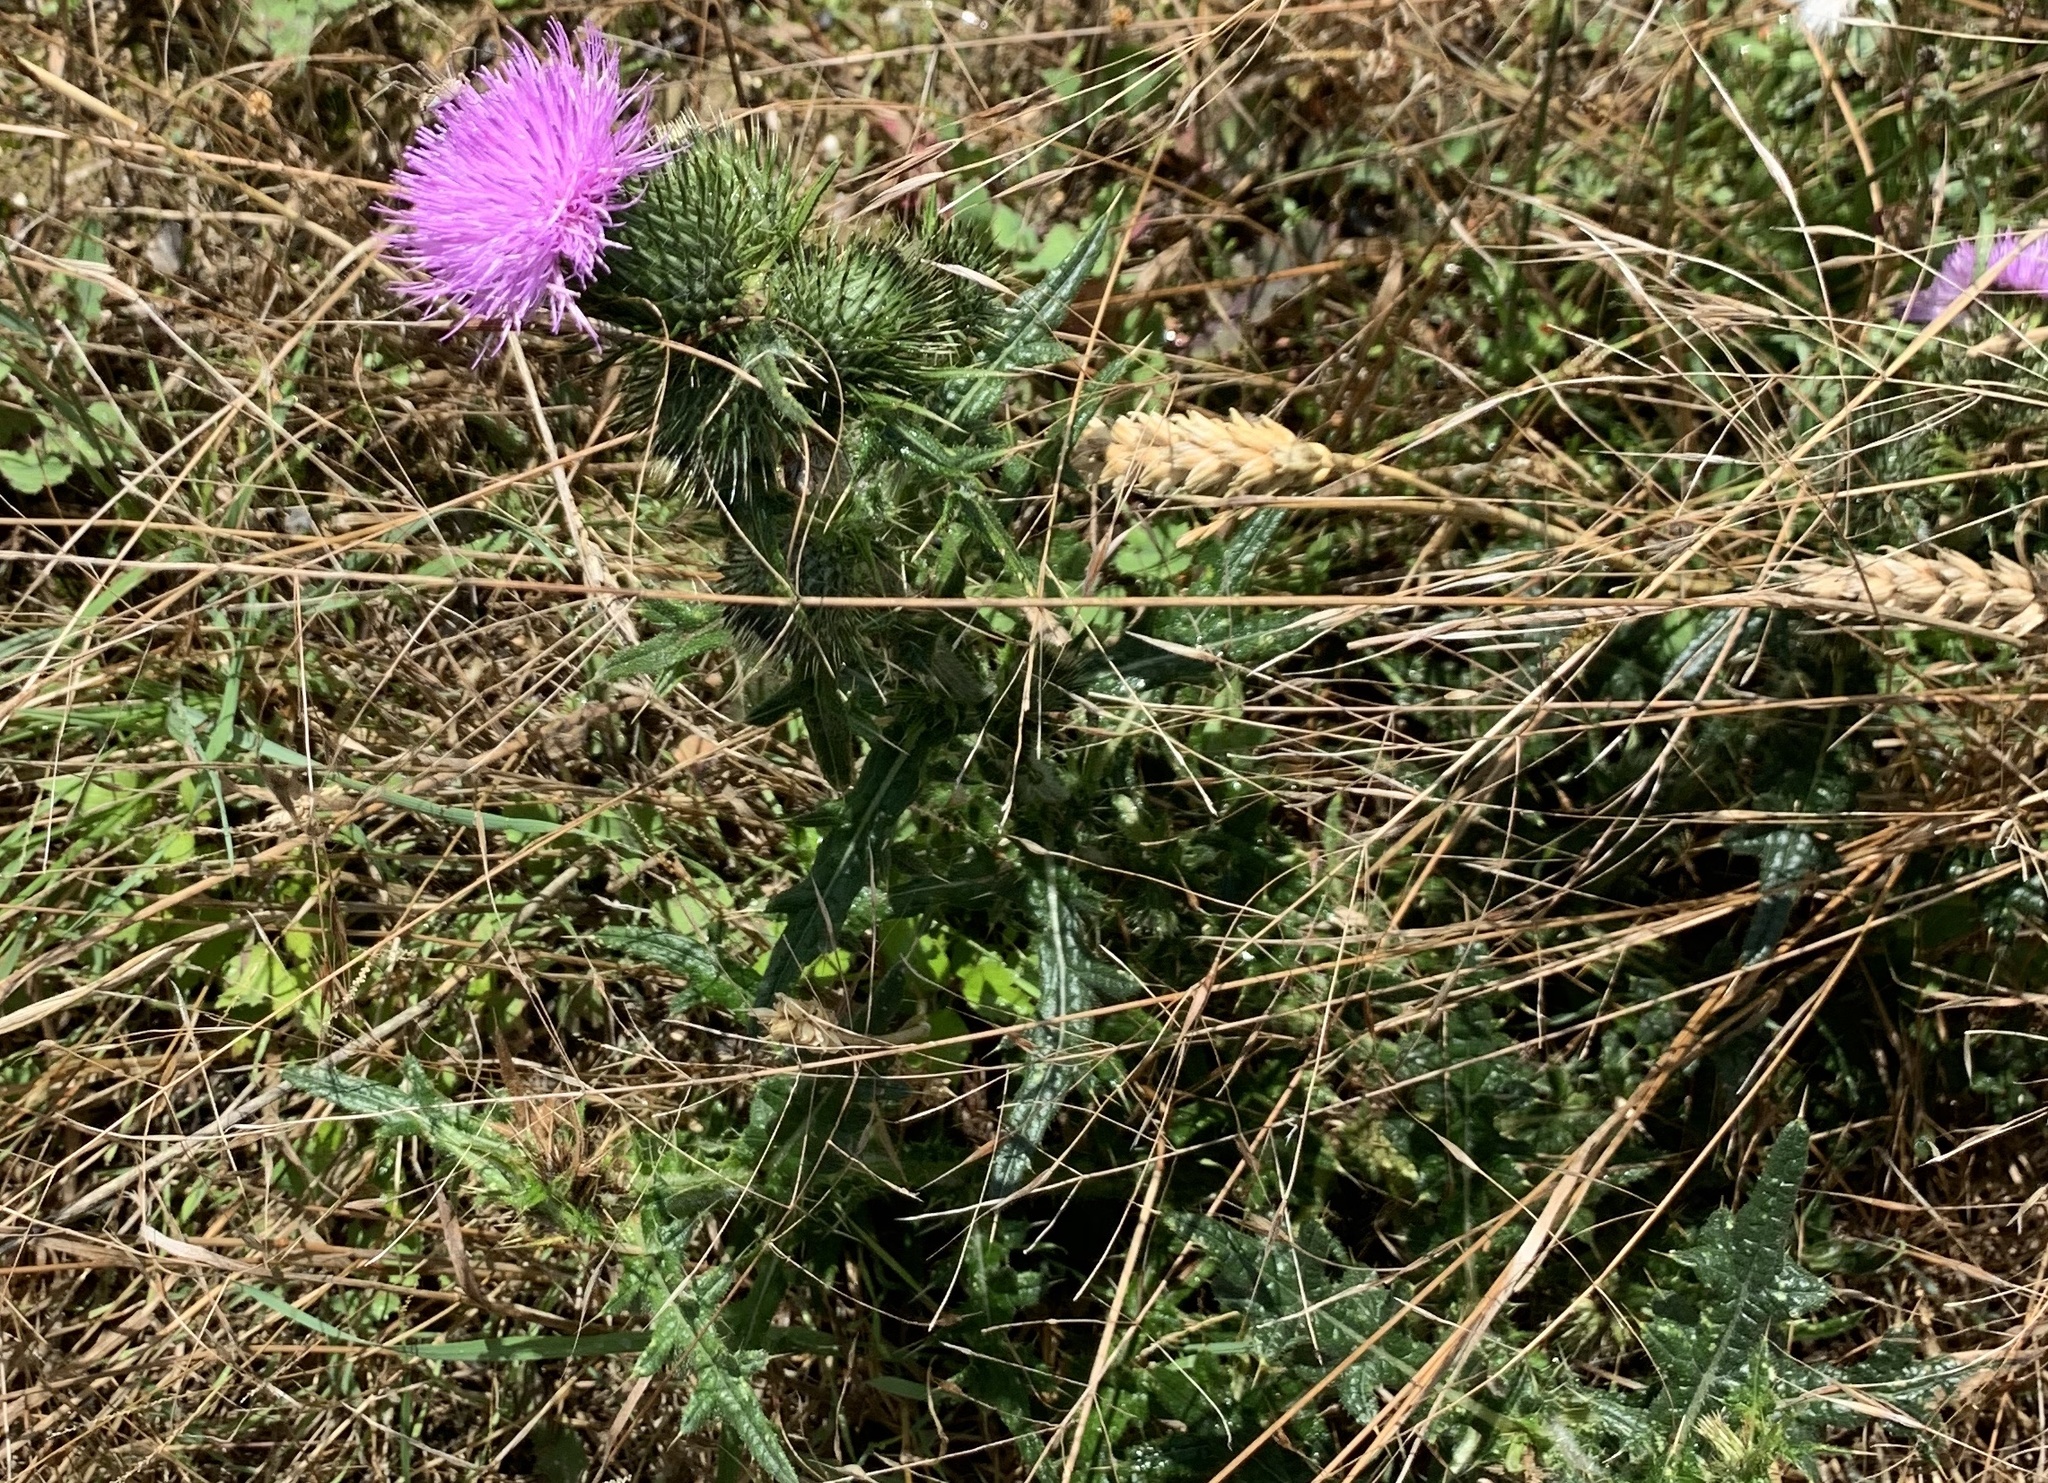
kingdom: Plantae
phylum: Tracheophyta
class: Magnoliopsida
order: Asterales
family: Asteraceae
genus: Cirsium
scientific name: Cirsium vulgare
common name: Bull thistle
